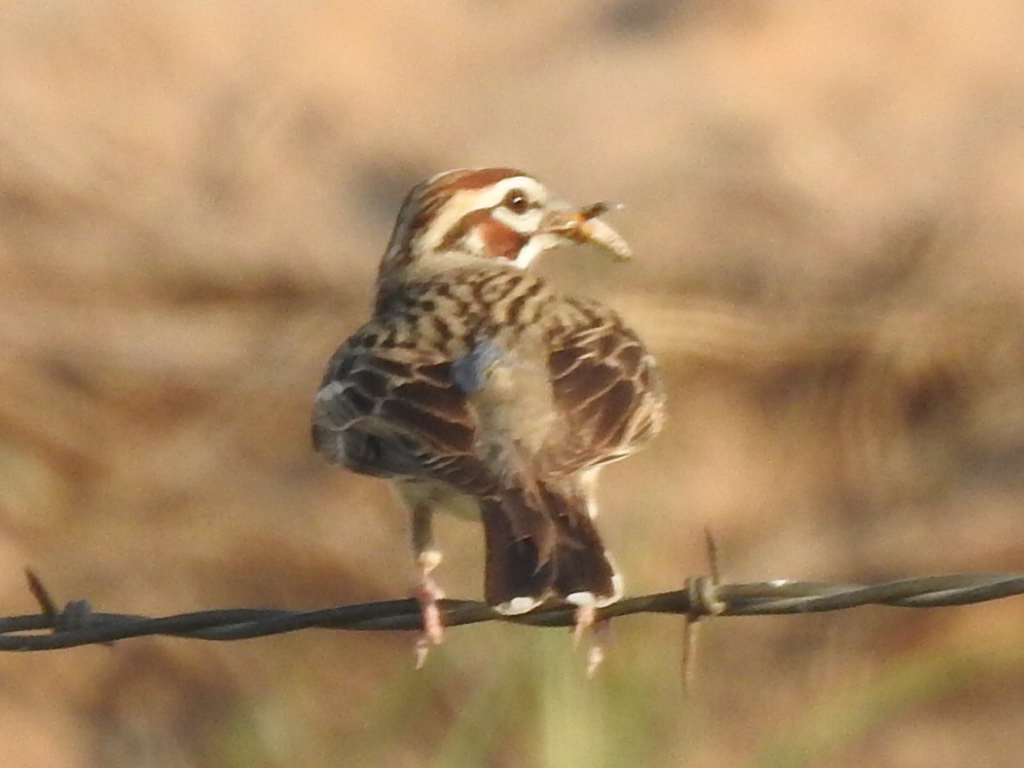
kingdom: Animalia
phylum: Chordata
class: Aves
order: Passeriformes
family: Passerellidae
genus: Chondestes
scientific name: Chondestes grammacus
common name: Lark sparrow
